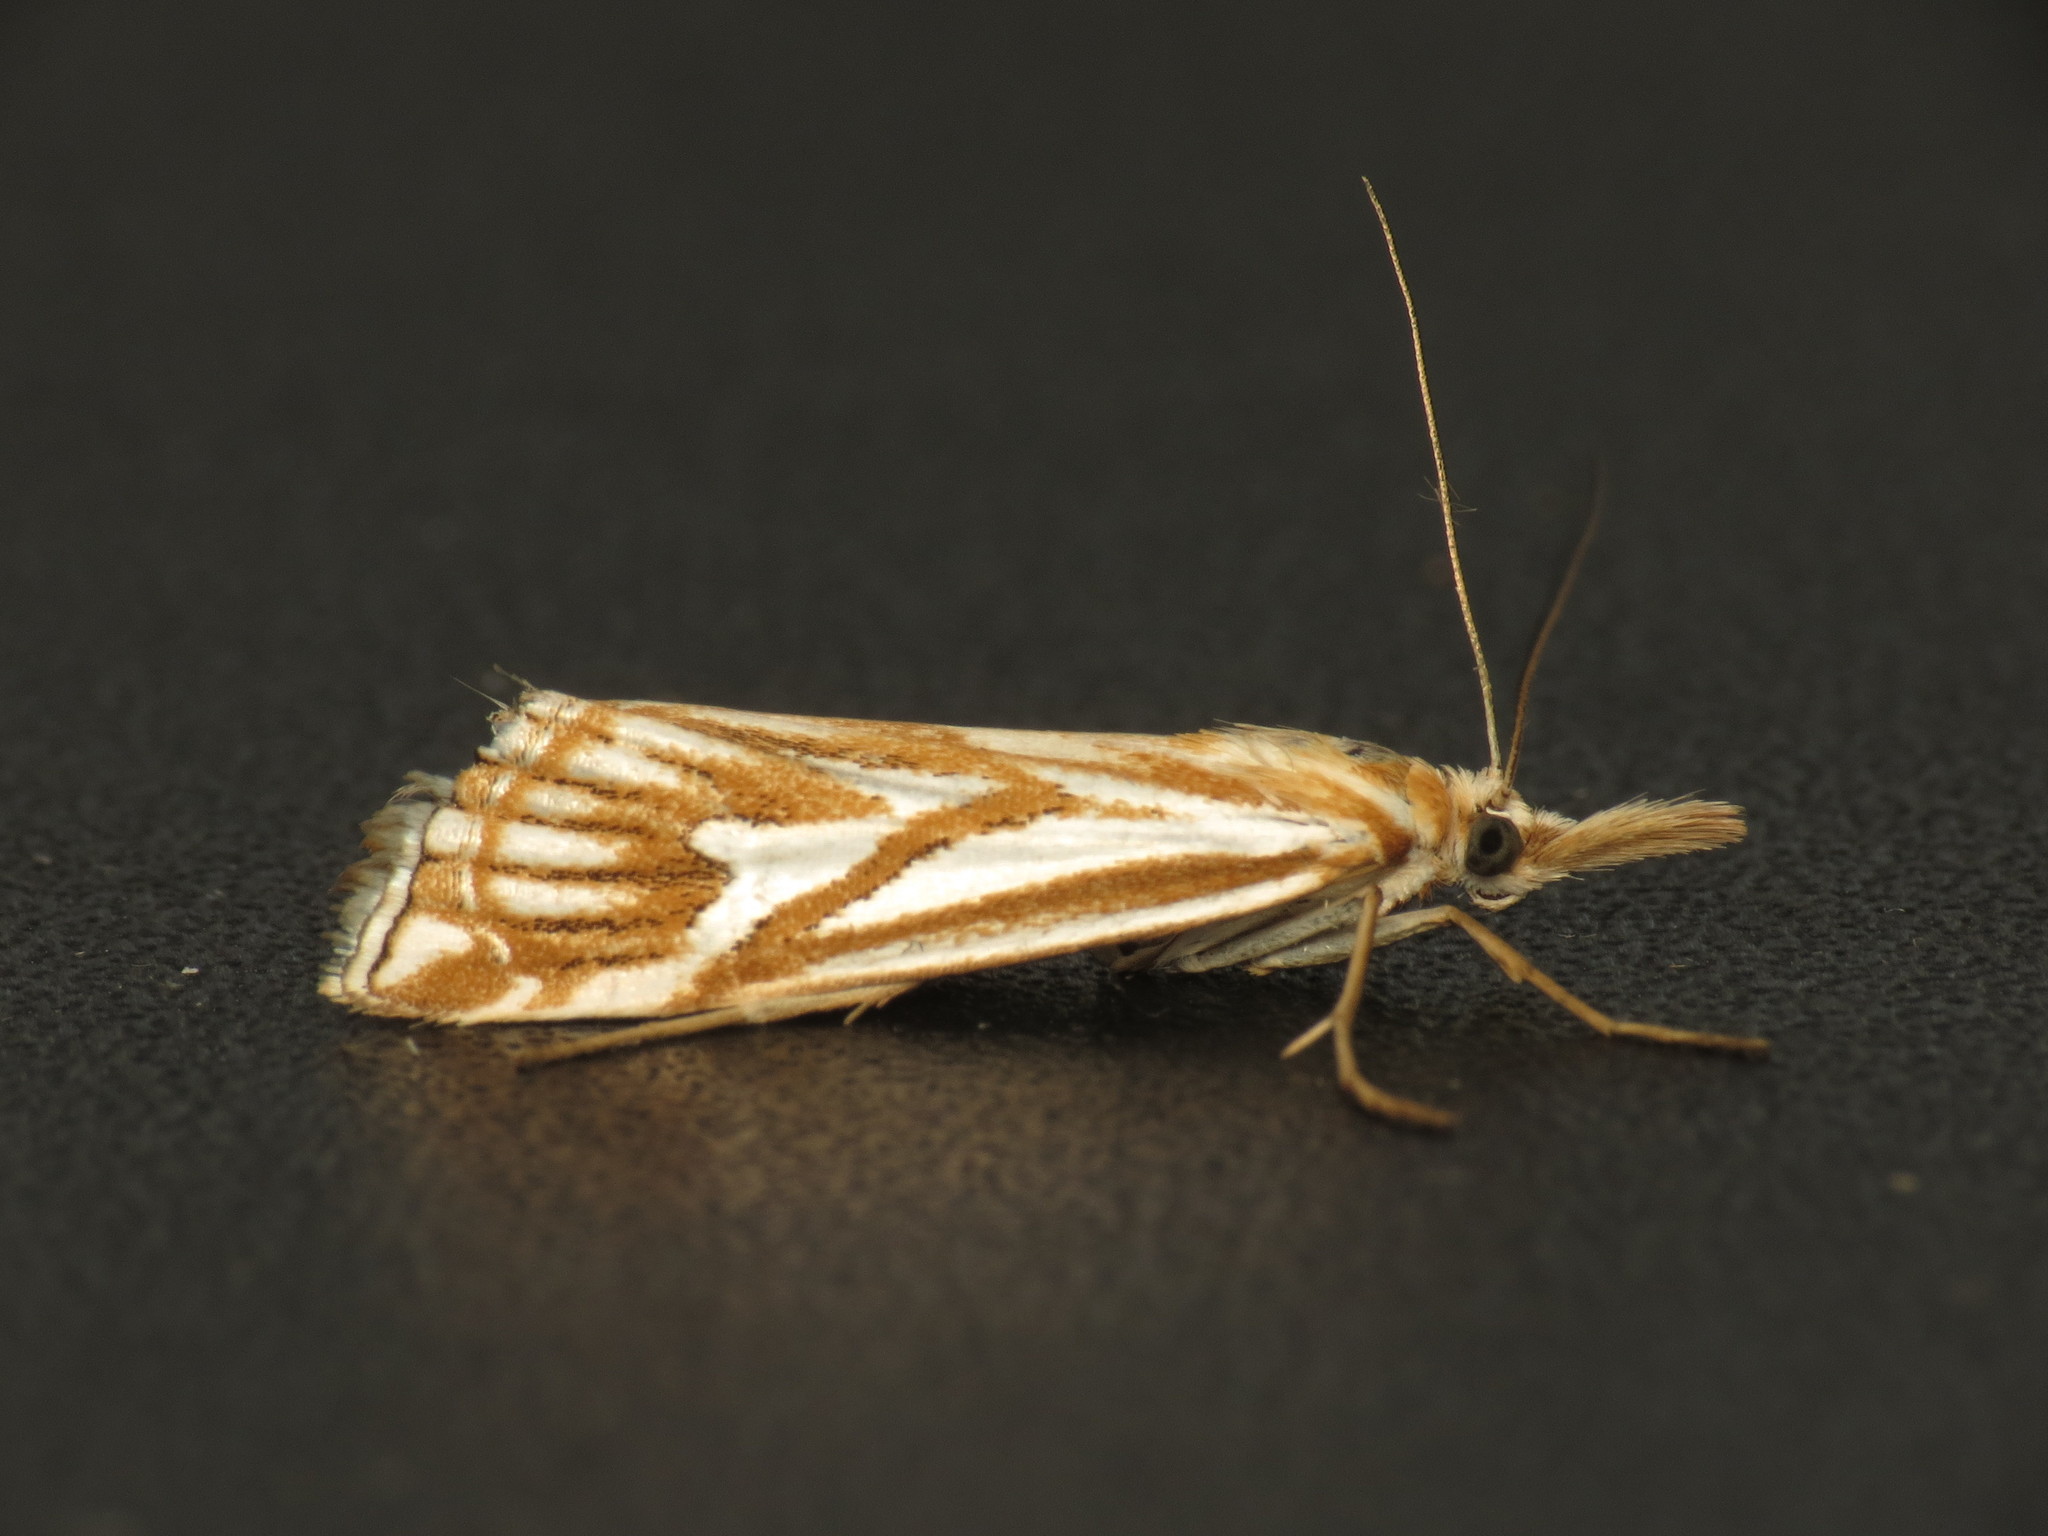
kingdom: Animalia
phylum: Arthropoda
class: Insecta
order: Lepidoptera
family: Crambidae
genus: Hednota
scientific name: Hednota pleniferellus
